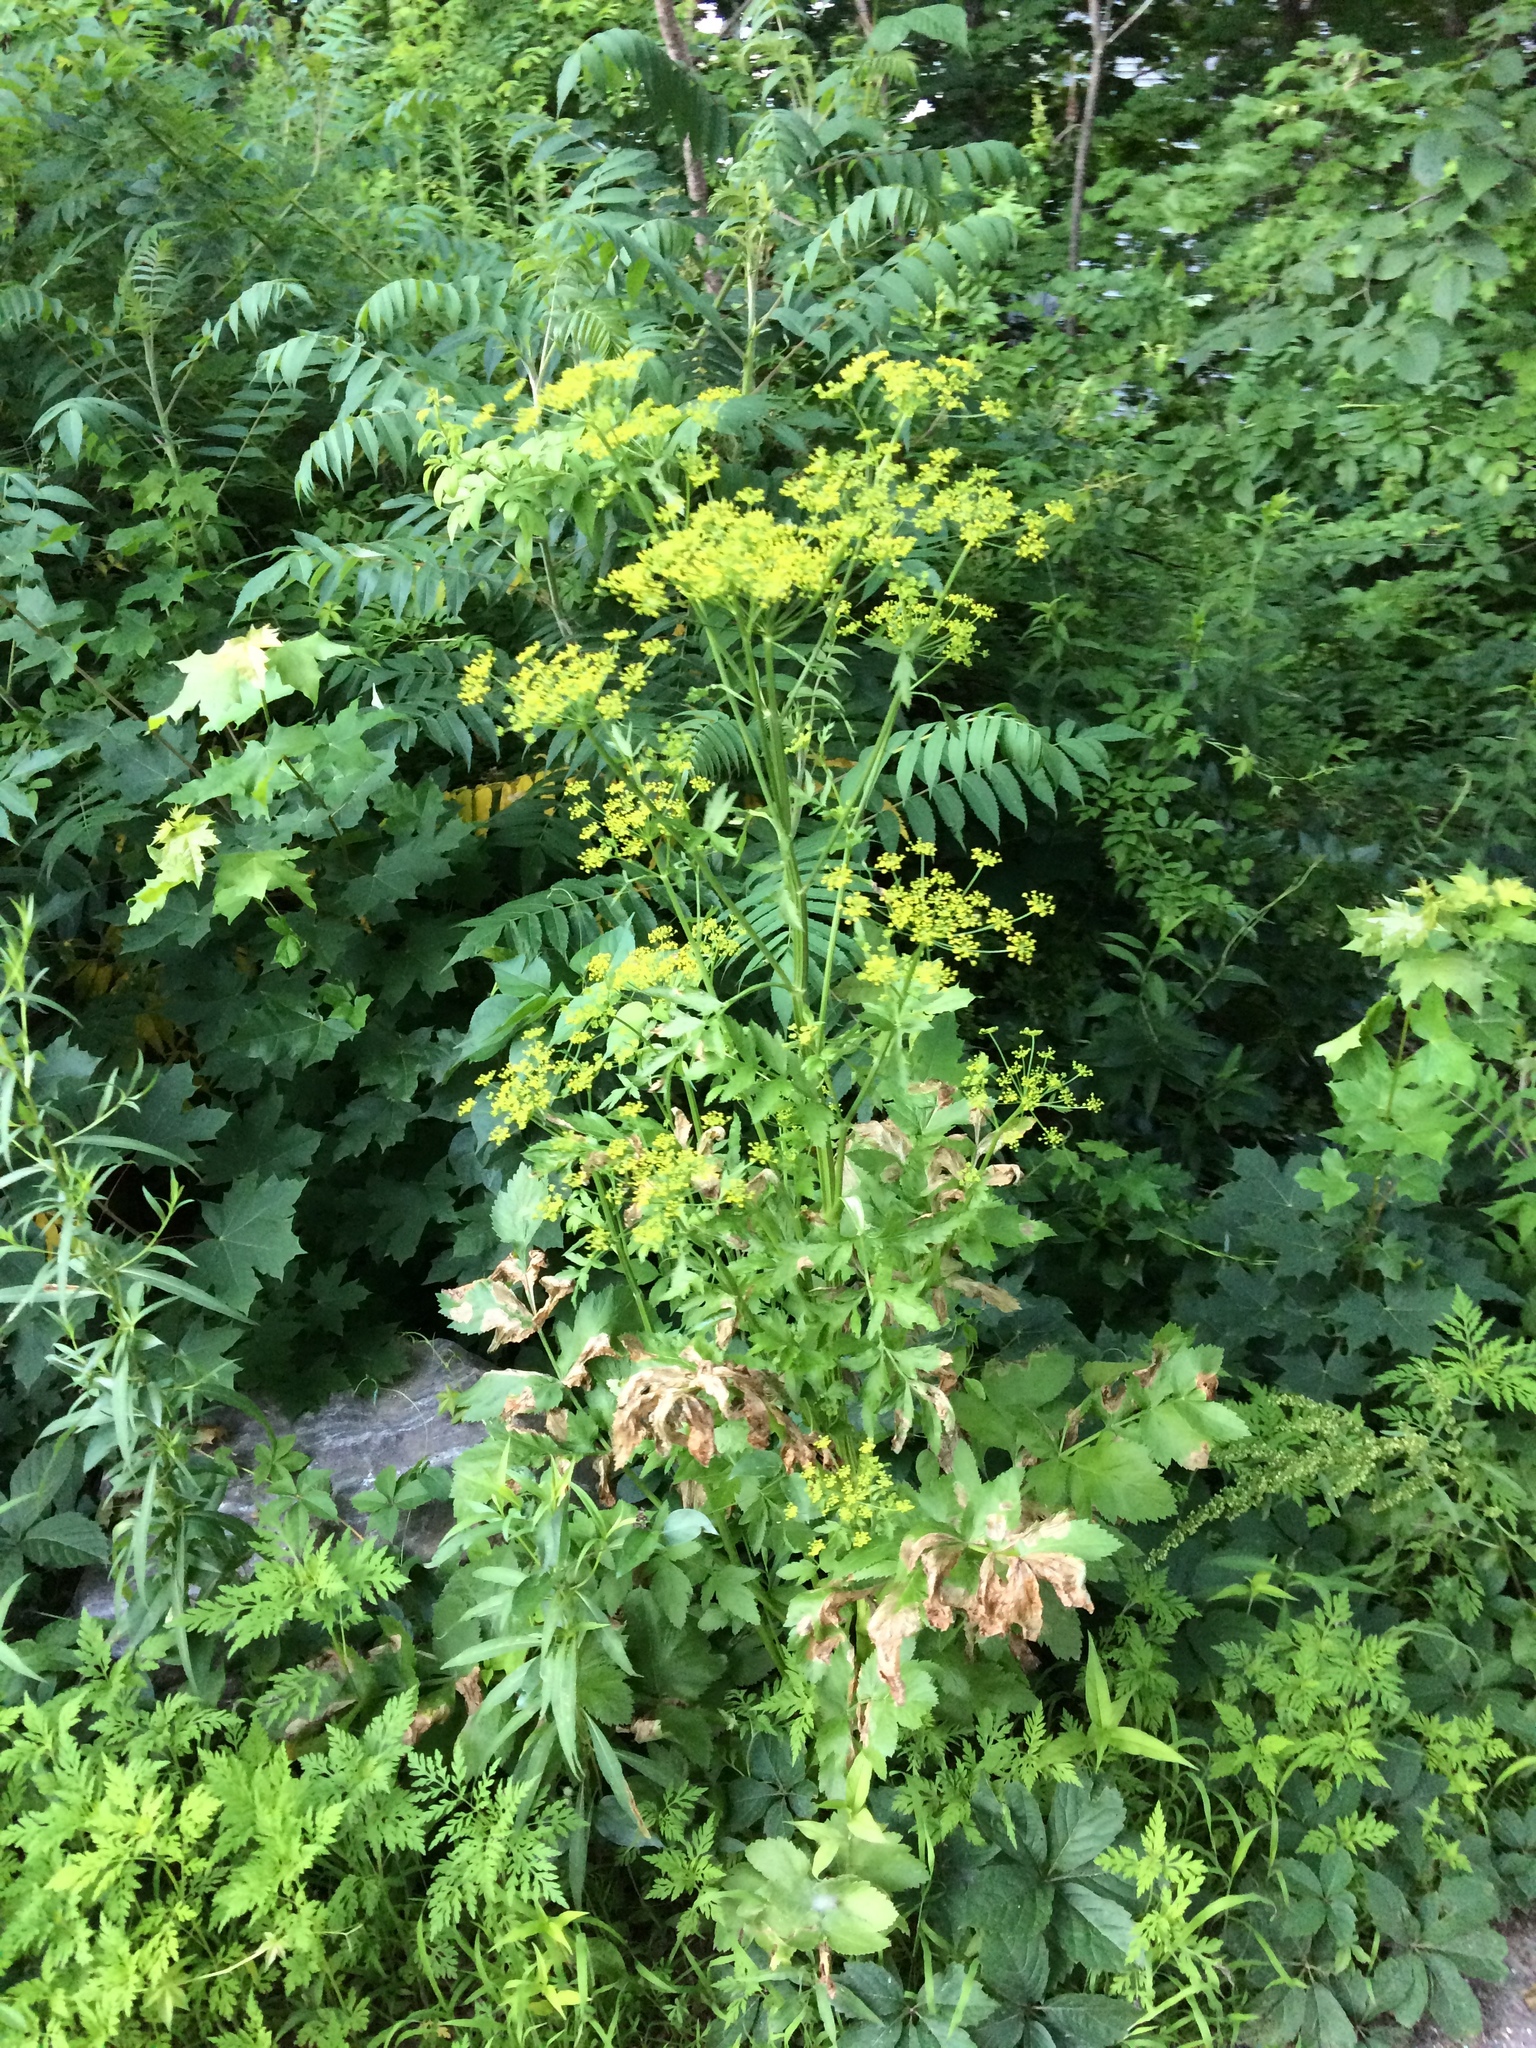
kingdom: Plantae
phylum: Tracheophyta
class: Magnoliopsida
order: Apiales
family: Apiaceae
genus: Pastinaca
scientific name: Pastinaca sativa
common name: Wild parsnip
